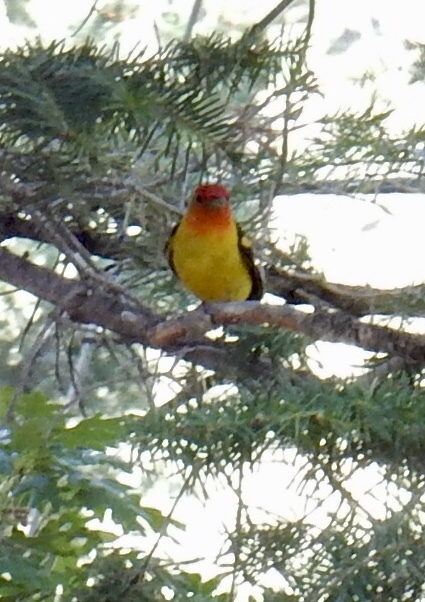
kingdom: Animalia
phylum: Chordata
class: Aves
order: Passeriformes
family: Cardinalidae
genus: Piranga
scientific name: Piranga ludoviciana
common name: Western tanager
